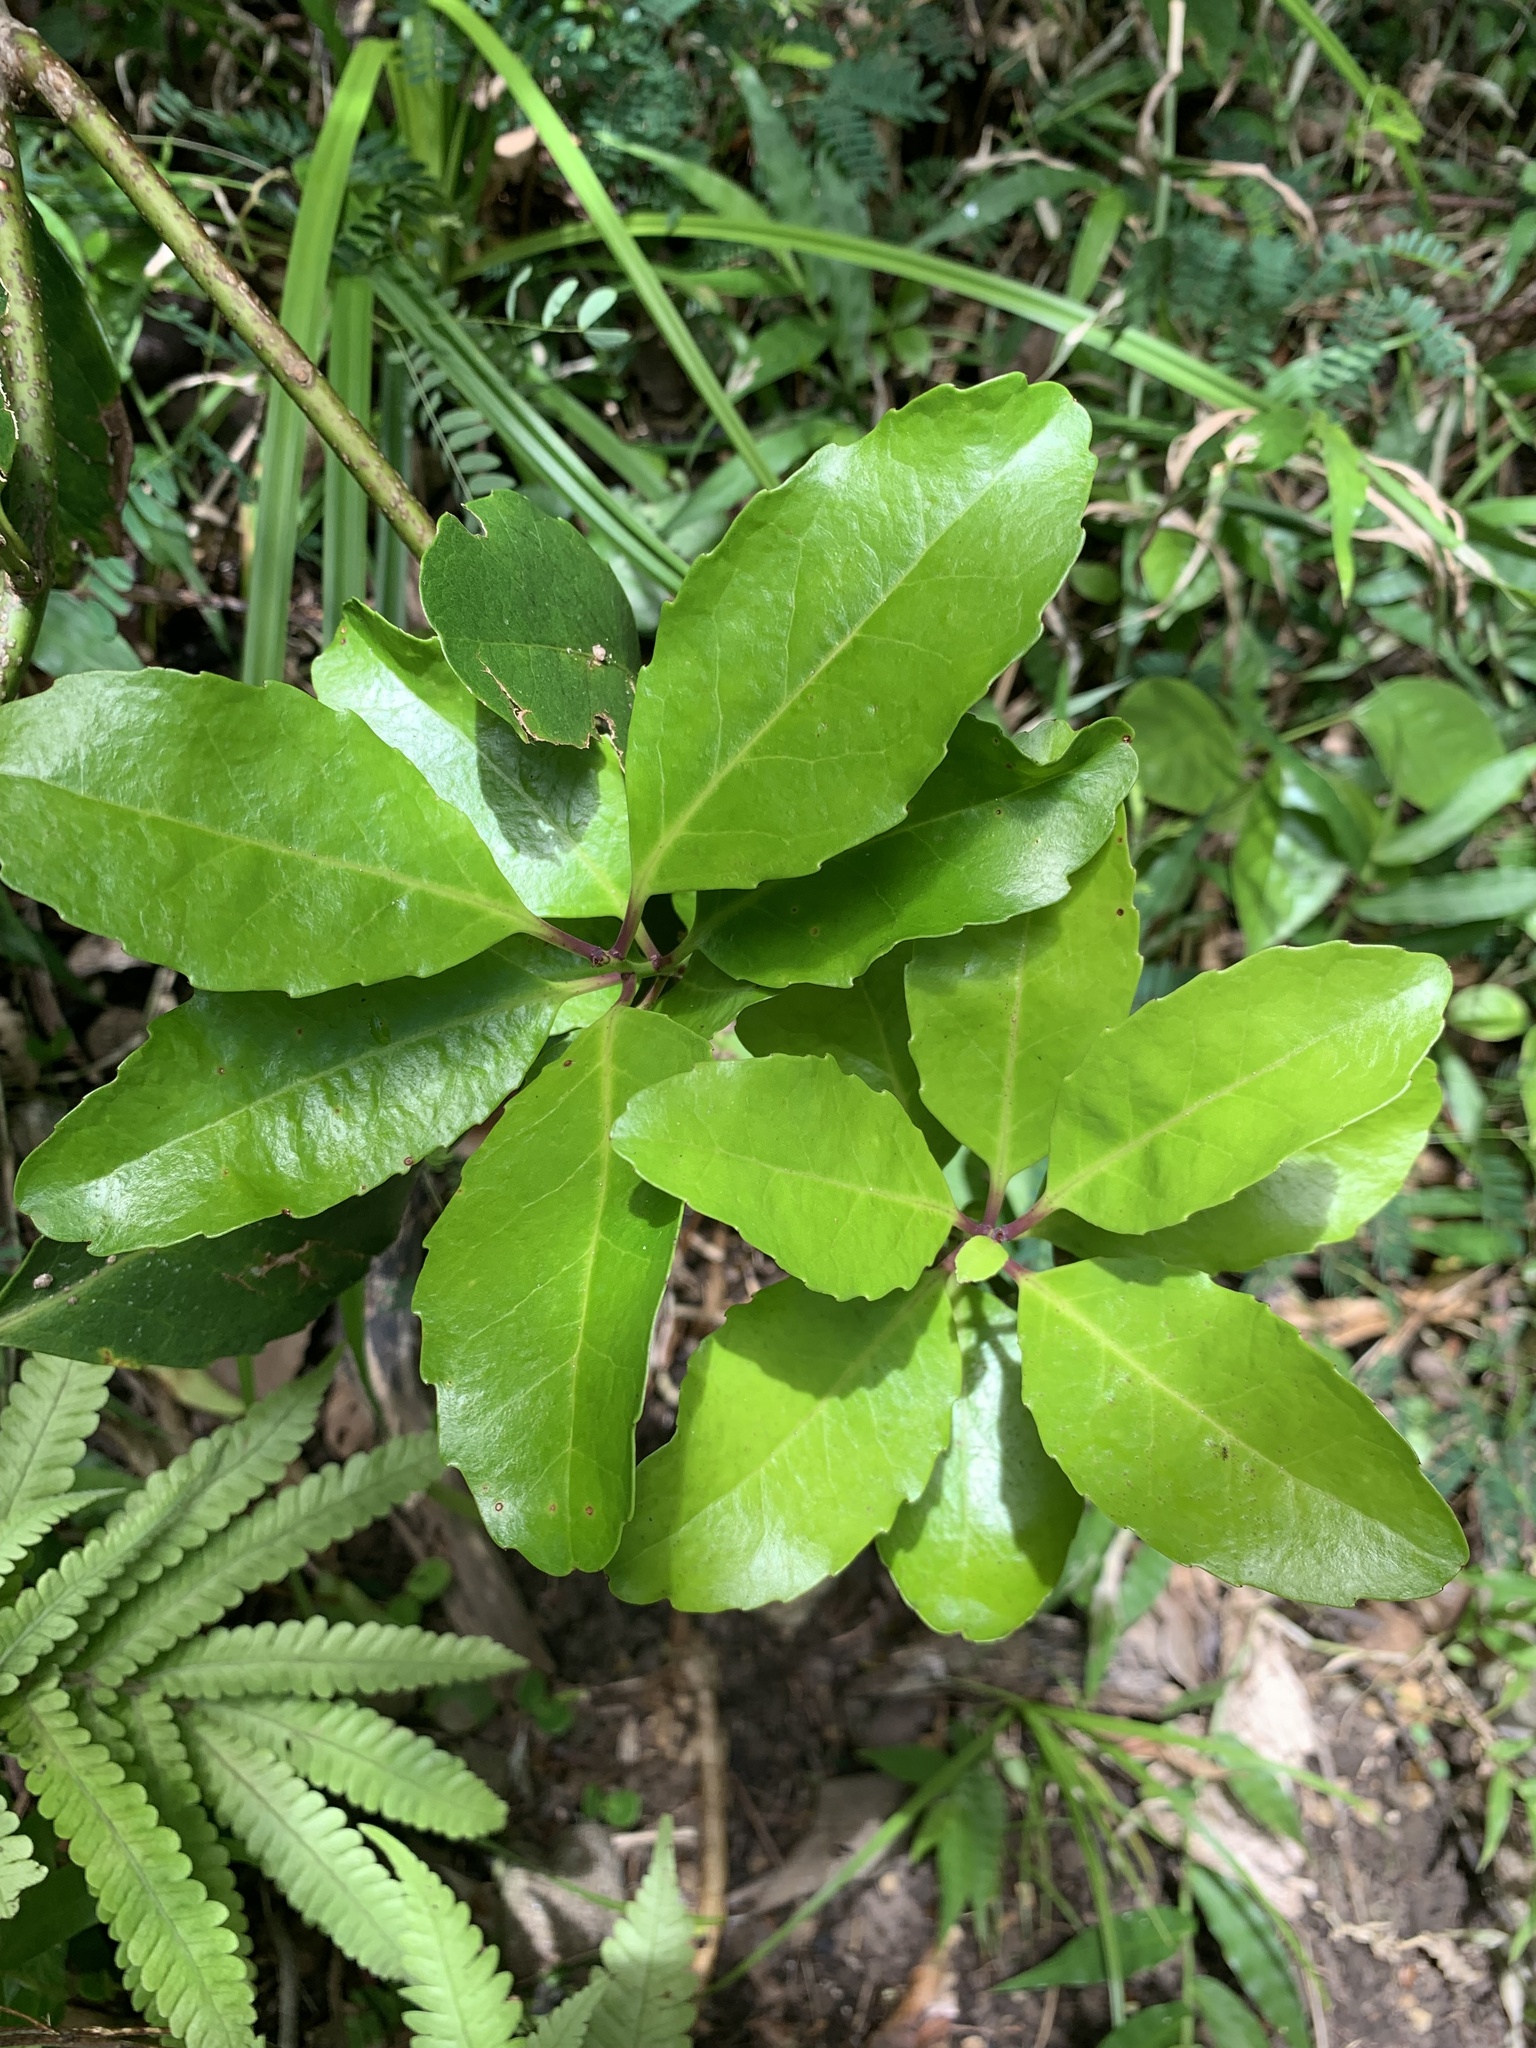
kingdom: Plantae
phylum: Tracheophyta
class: Magnoliopsida
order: Aquifoliales
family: Aquifoliaceae
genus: Ilex
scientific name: Ilex mertensii
